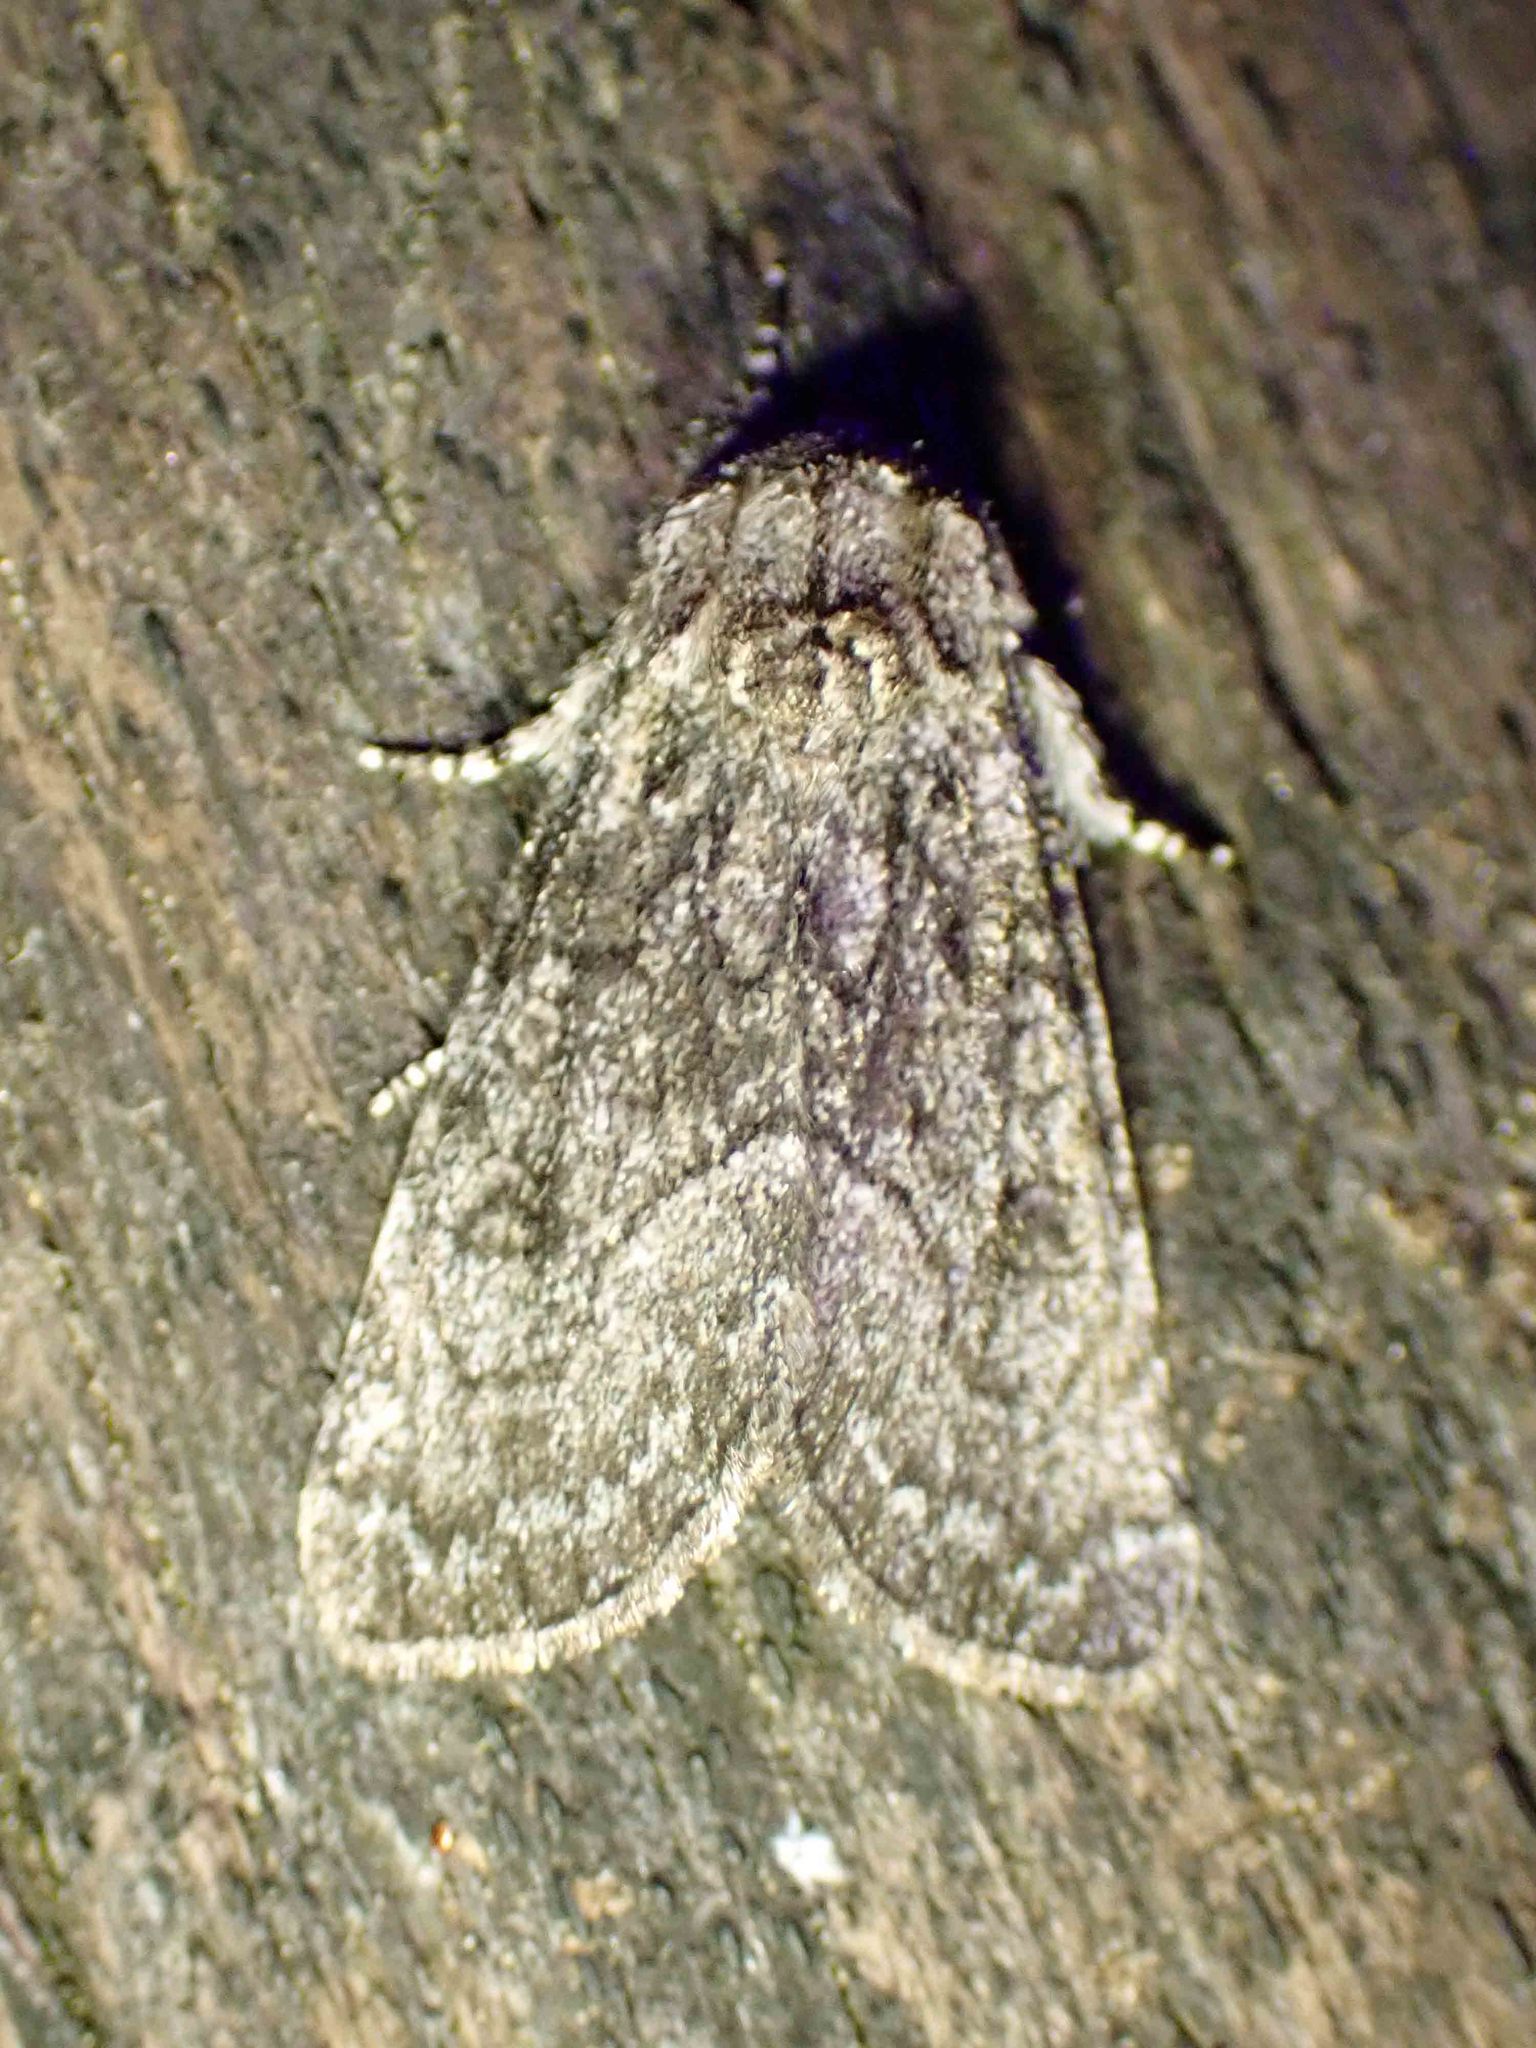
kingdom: Animalia
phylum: Arthropoda
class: Insecta
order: Lepidoptera
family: Noctuidae
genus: Raphia
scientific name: Raphia frater
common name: Brother
